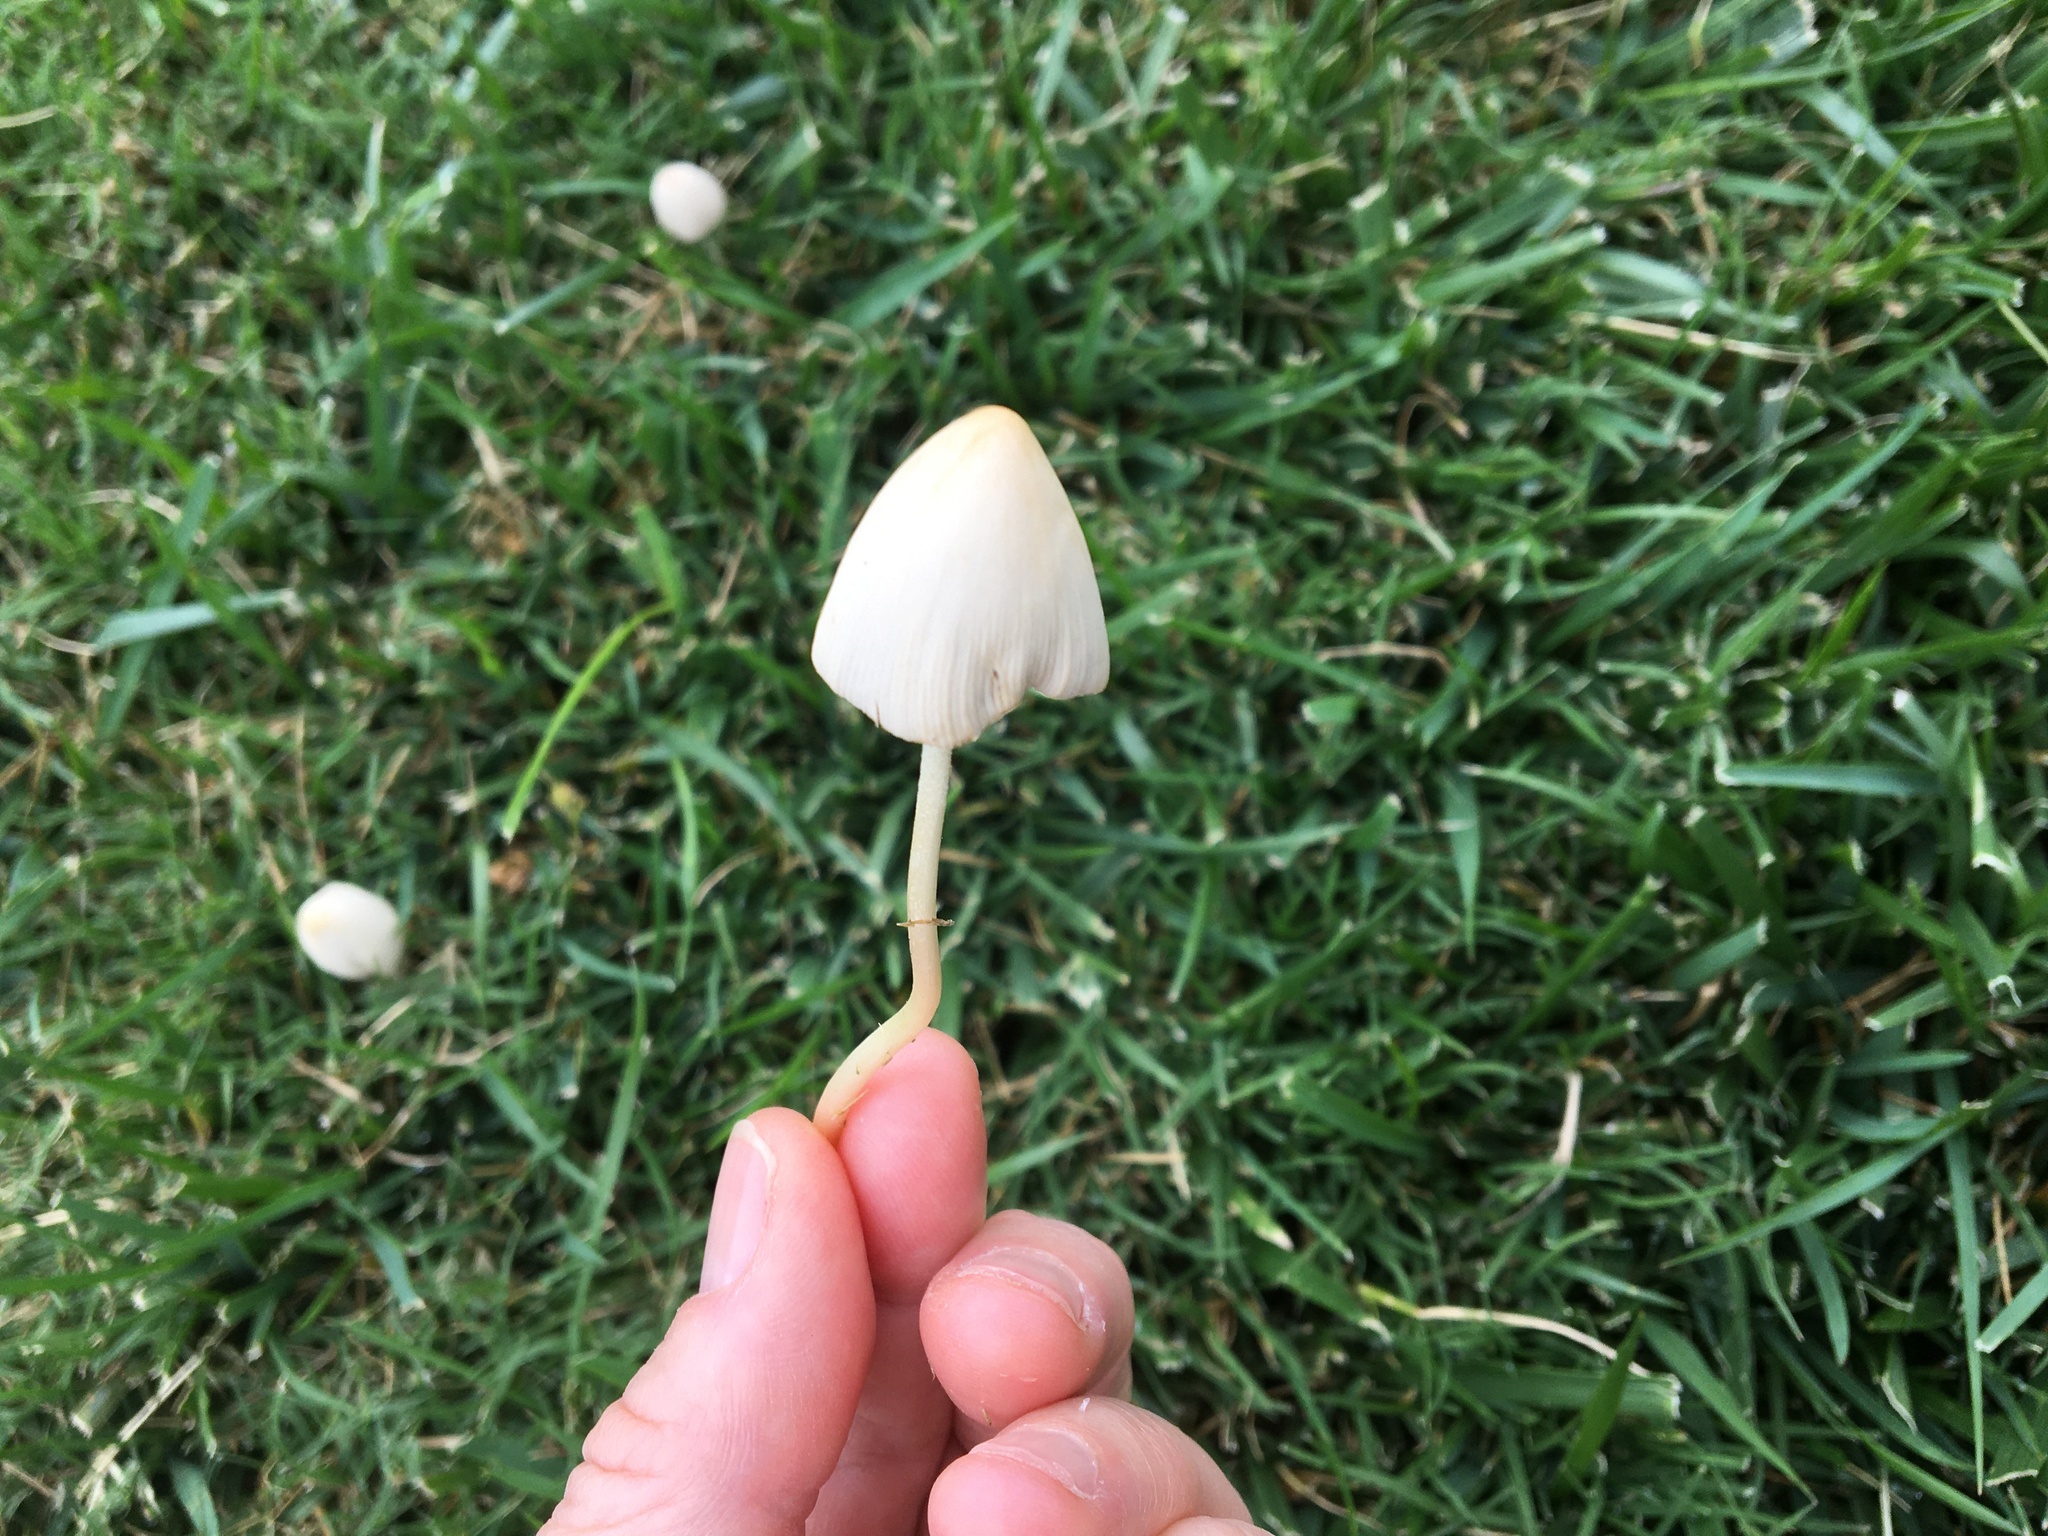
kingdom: Fungi
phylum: Basidiomycota
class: Agaricomycetes
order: Agaricales
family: Bolbitiaceae
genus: Conocybe
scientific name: Conocybe apala
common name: Milky conecap
